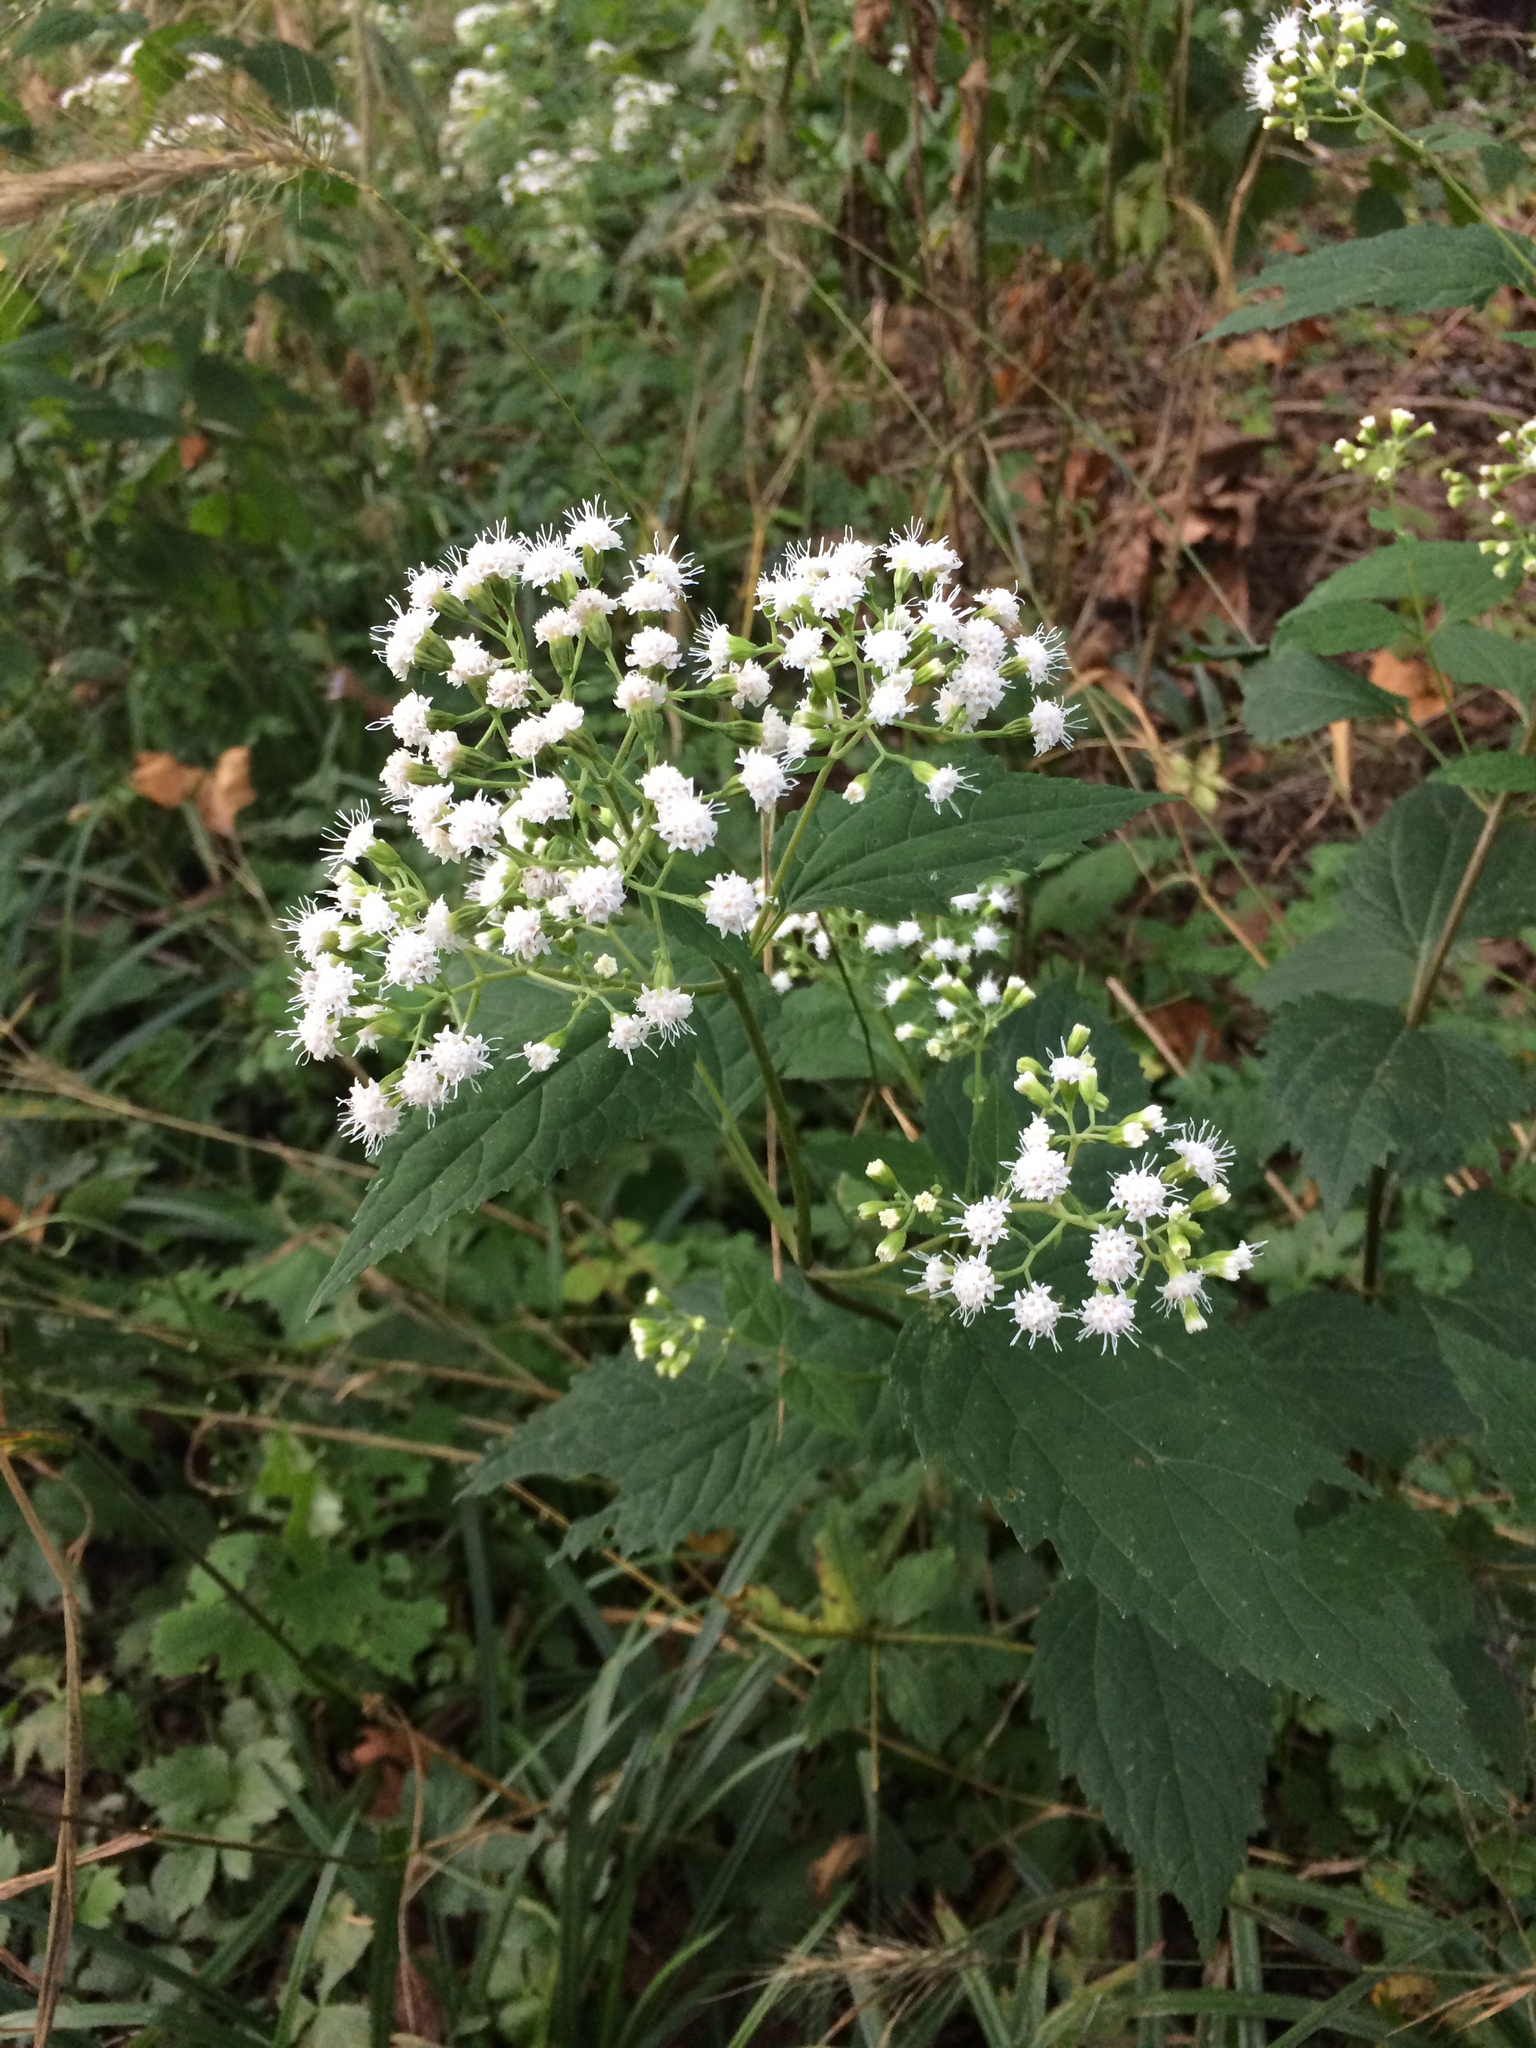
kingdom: Plantae
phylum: Tracheophyta
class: Magnoliopsida
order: Asterales
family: Asteraceae
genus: Ageratina
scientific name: Ageratina altissima
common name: White snakeroot
